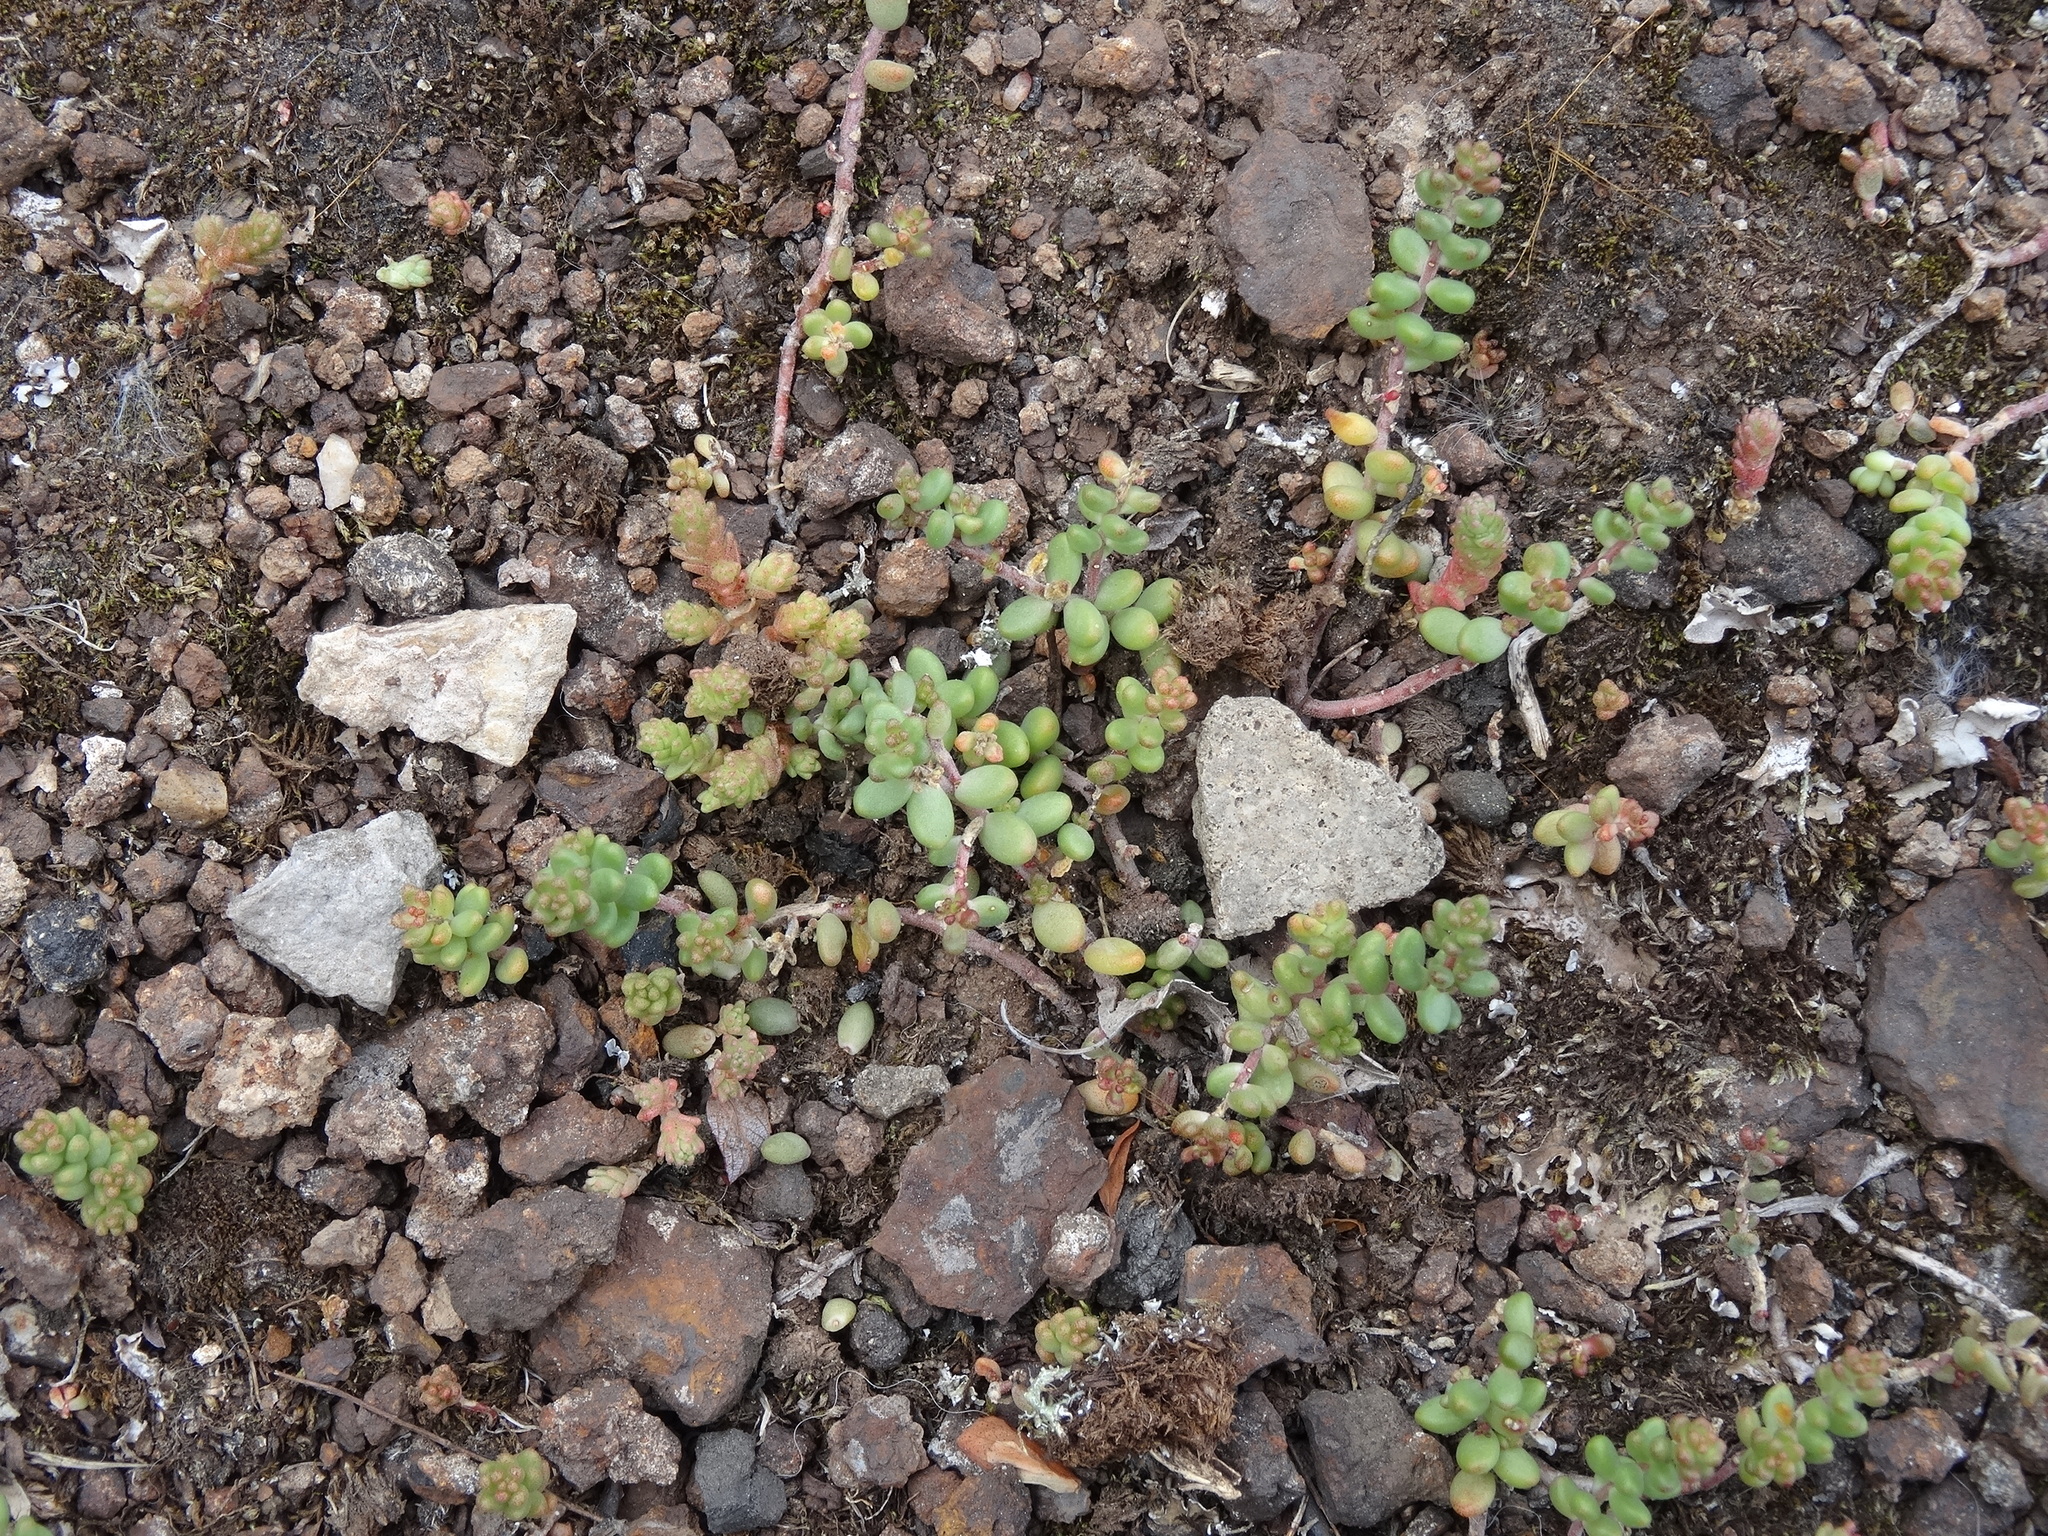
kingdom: Plantae
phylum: Tracheophyta
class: Magnoliopsida
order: Saxifragales
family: Crassulaceae
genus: Sedum
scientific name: Sedum album
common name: White stonecrop
